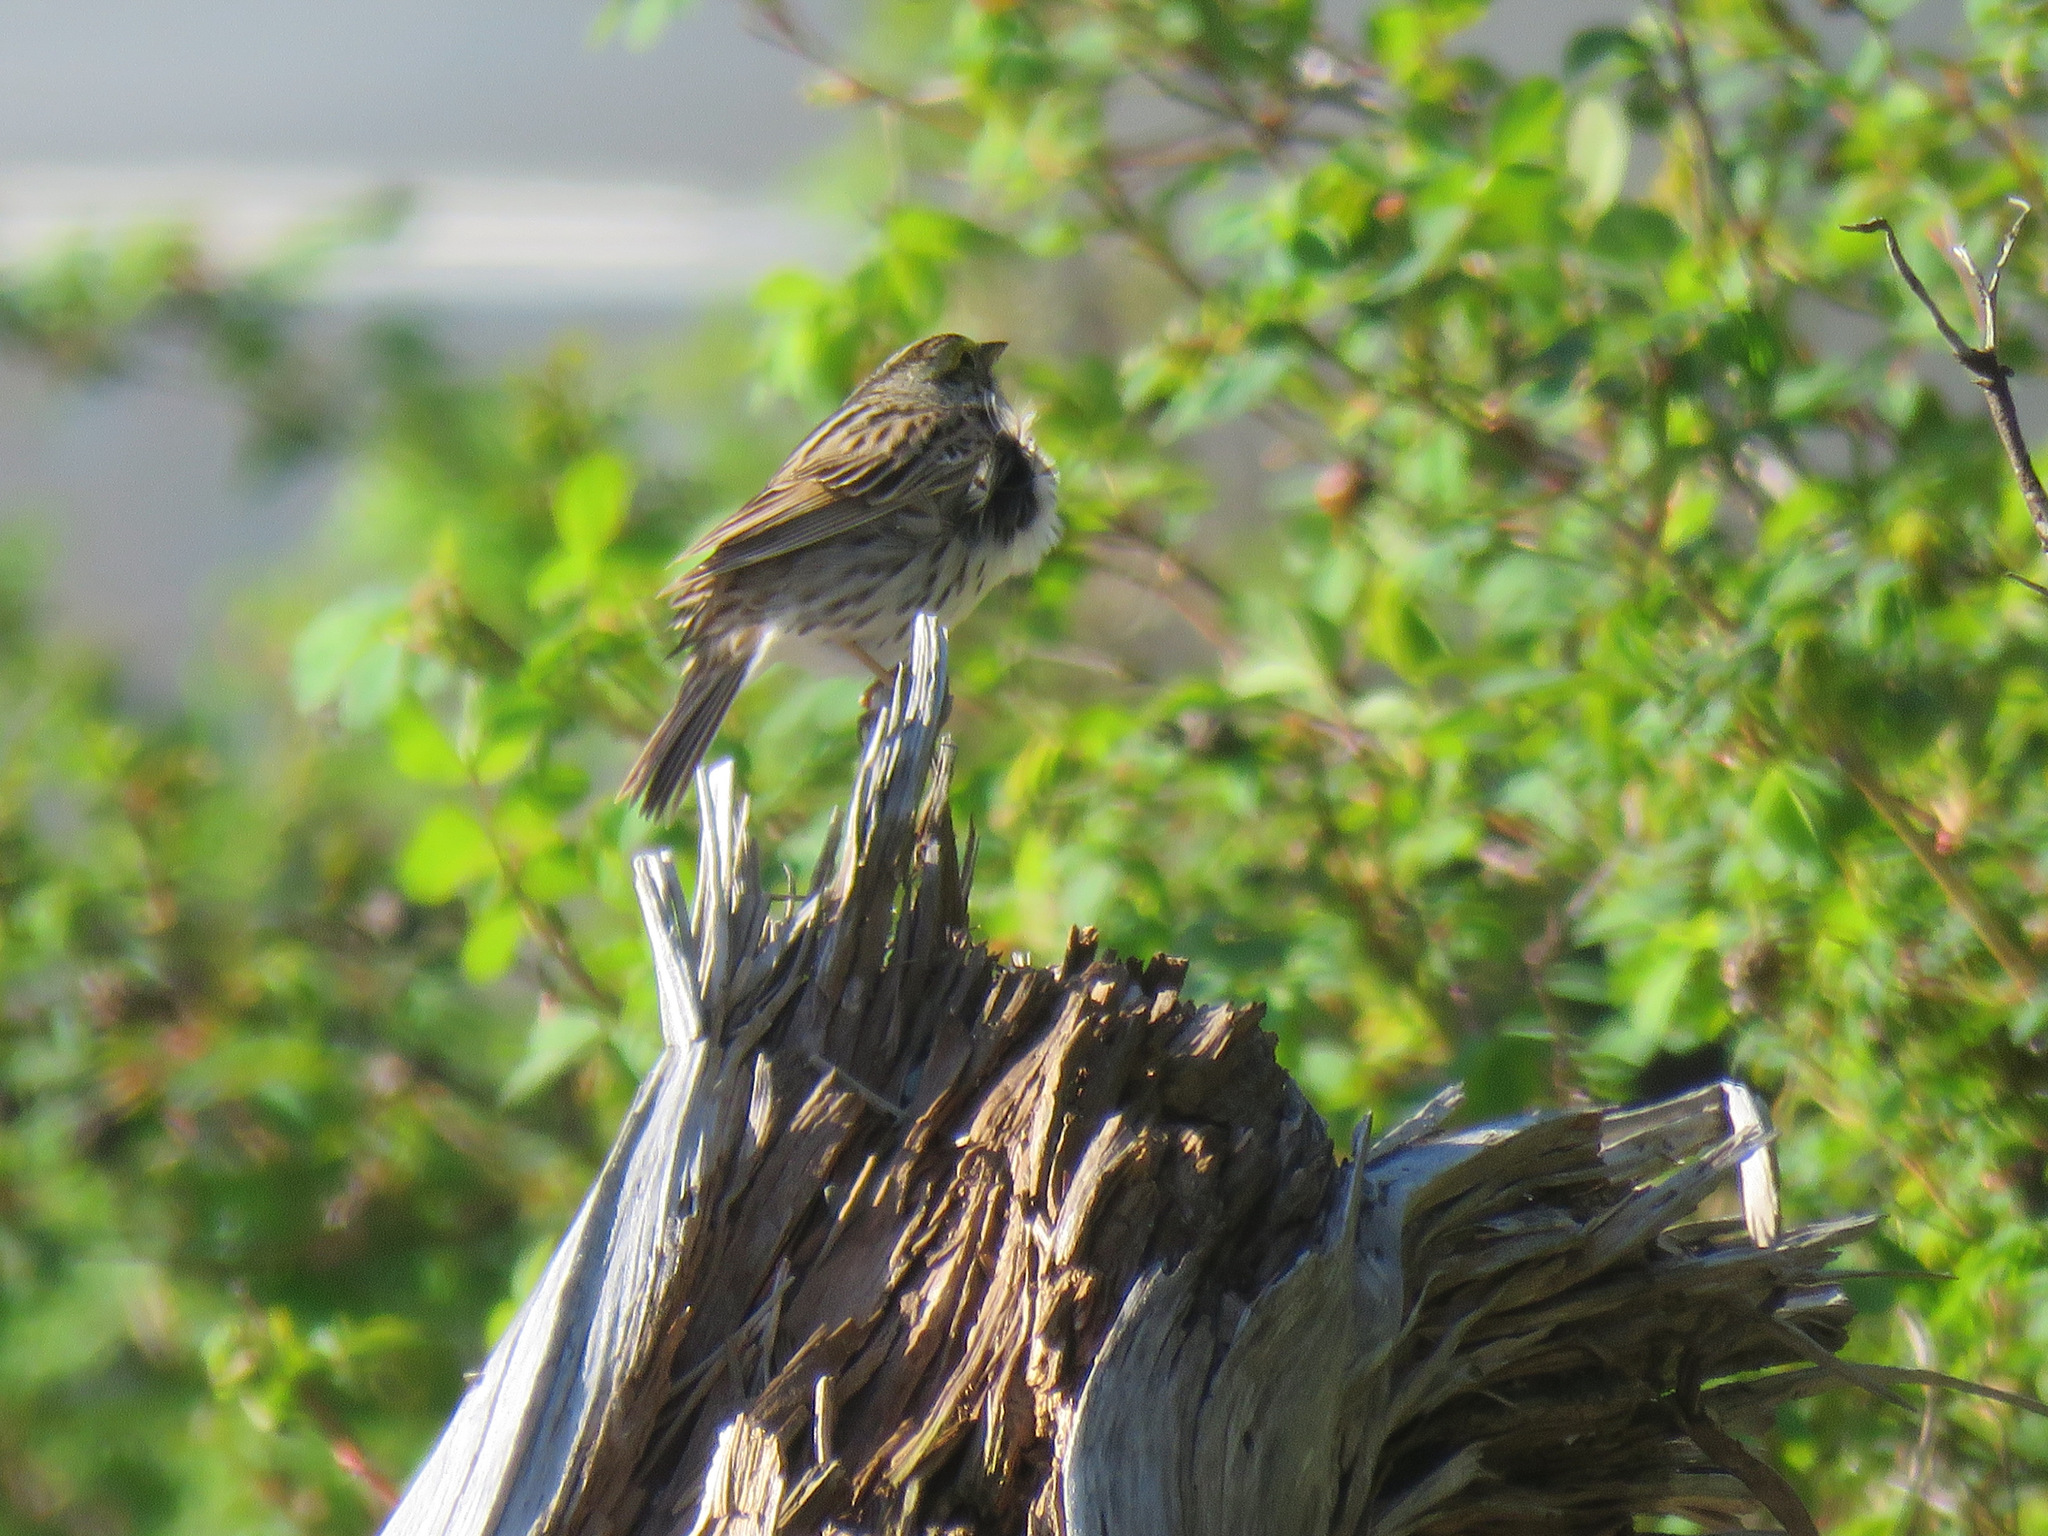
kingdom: Animalia
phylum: Chordata
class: Aves
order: Passeriformes
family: Passerellidae
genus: Passerculus
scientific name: Passerculus sandwichensis
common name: Savannah sparrow
